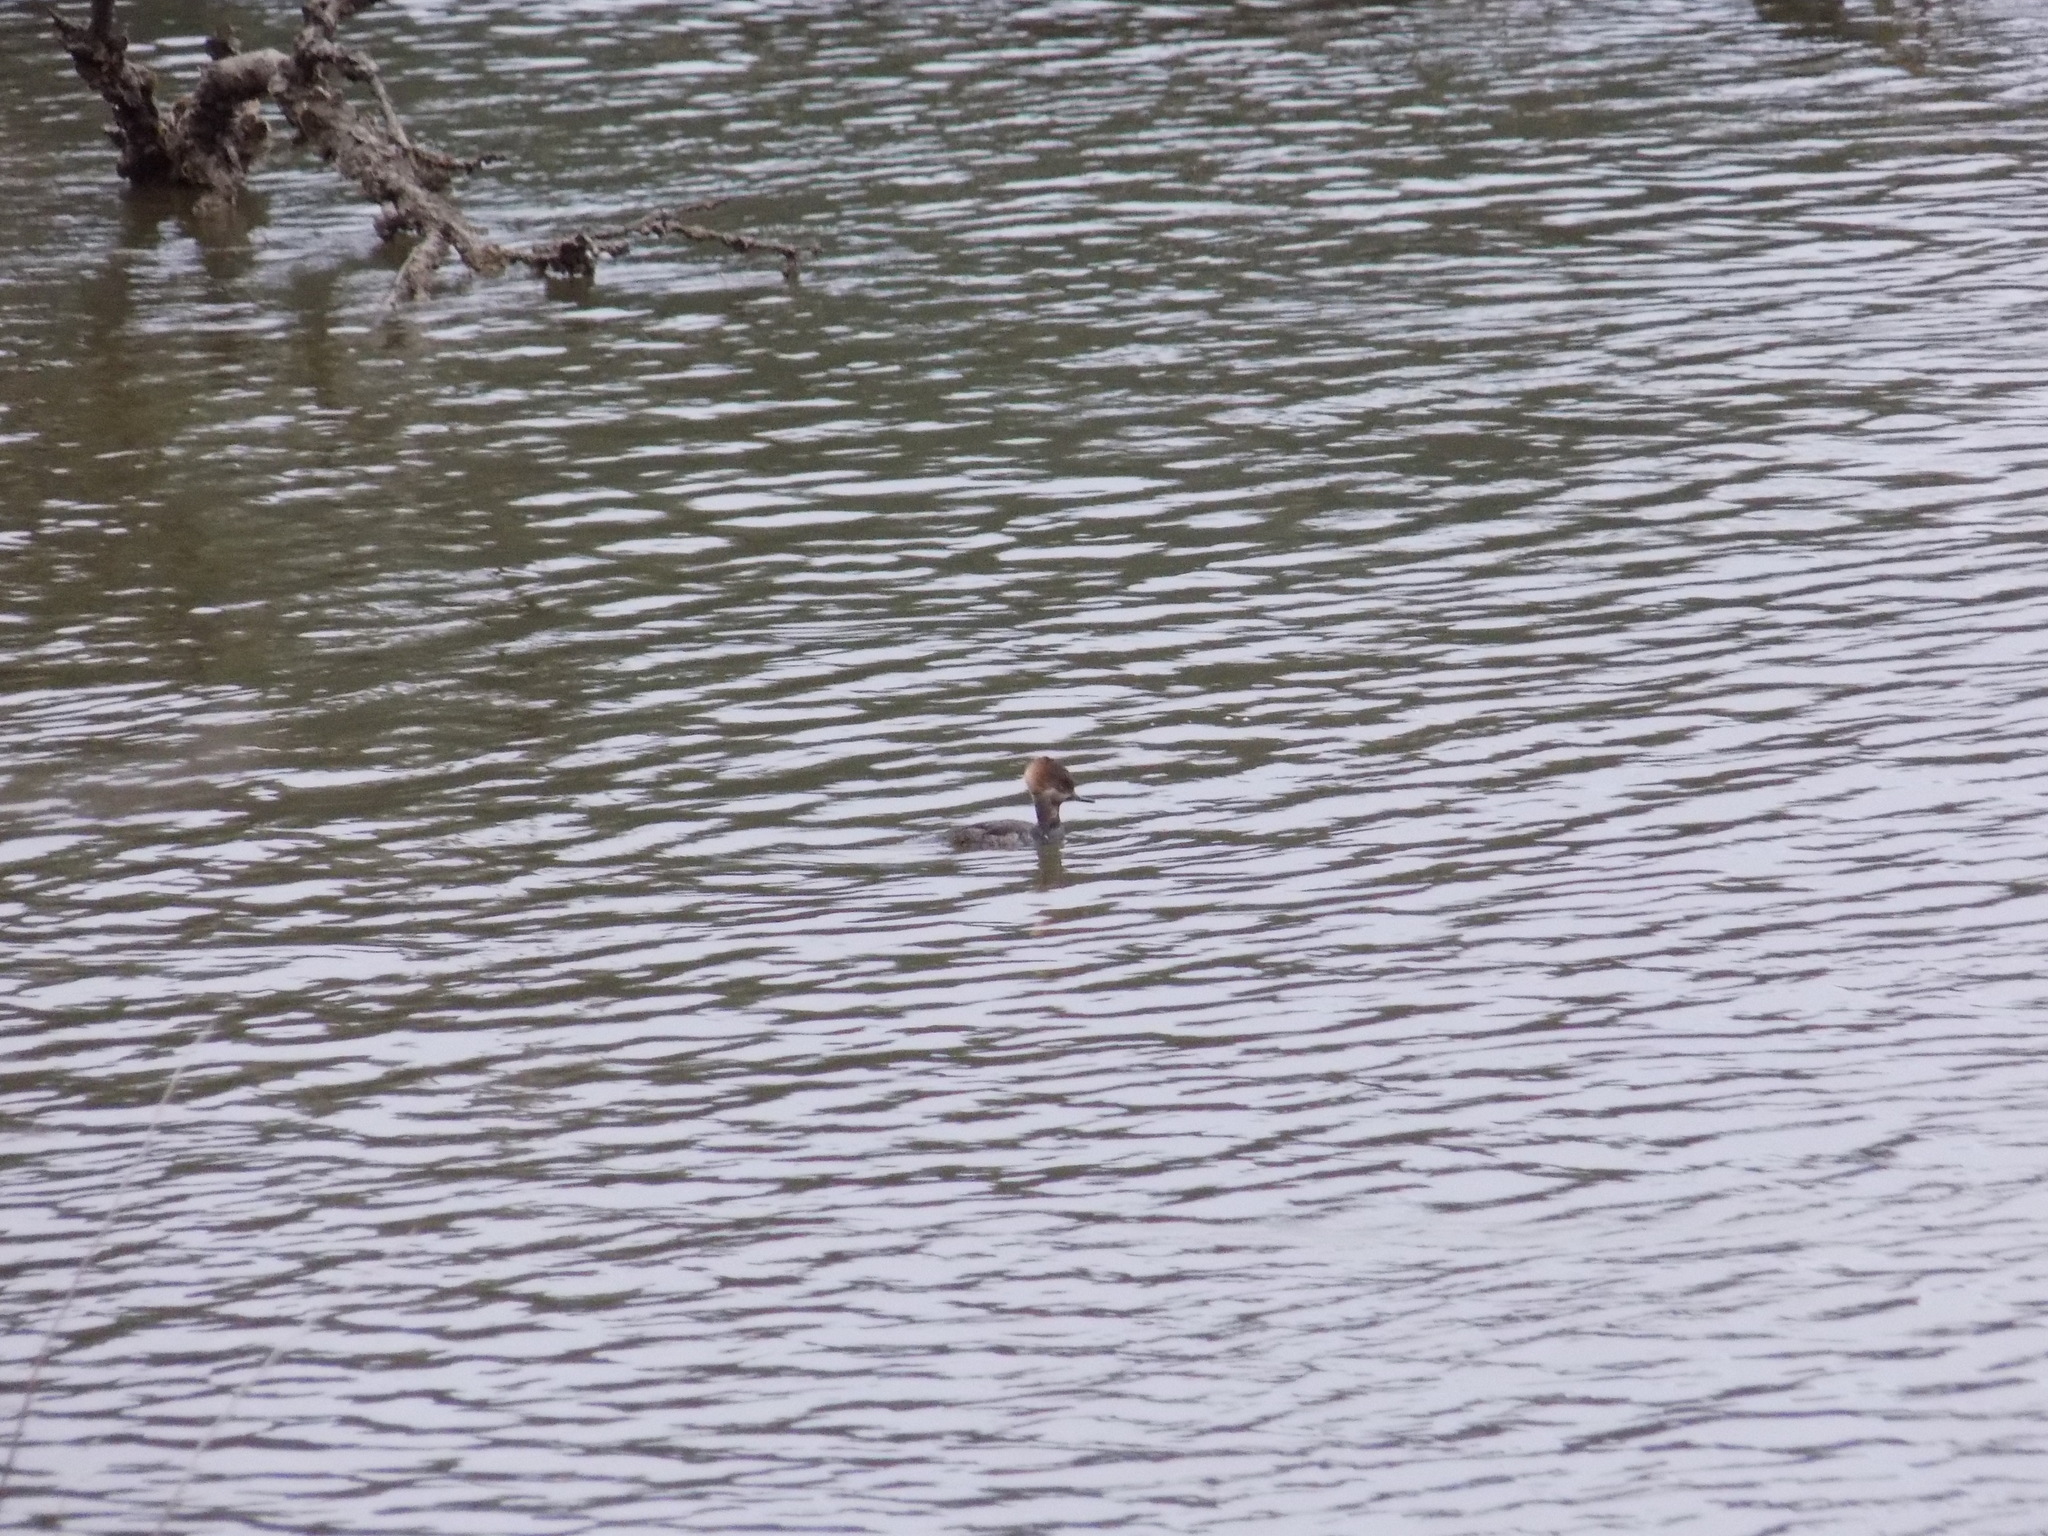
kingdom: Animalia
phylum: Chordata
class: Aves
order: Anseriformes
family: Anatidae
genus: Lophodytes
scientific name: Lophodytes cucullatus
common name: Hooded merganser
